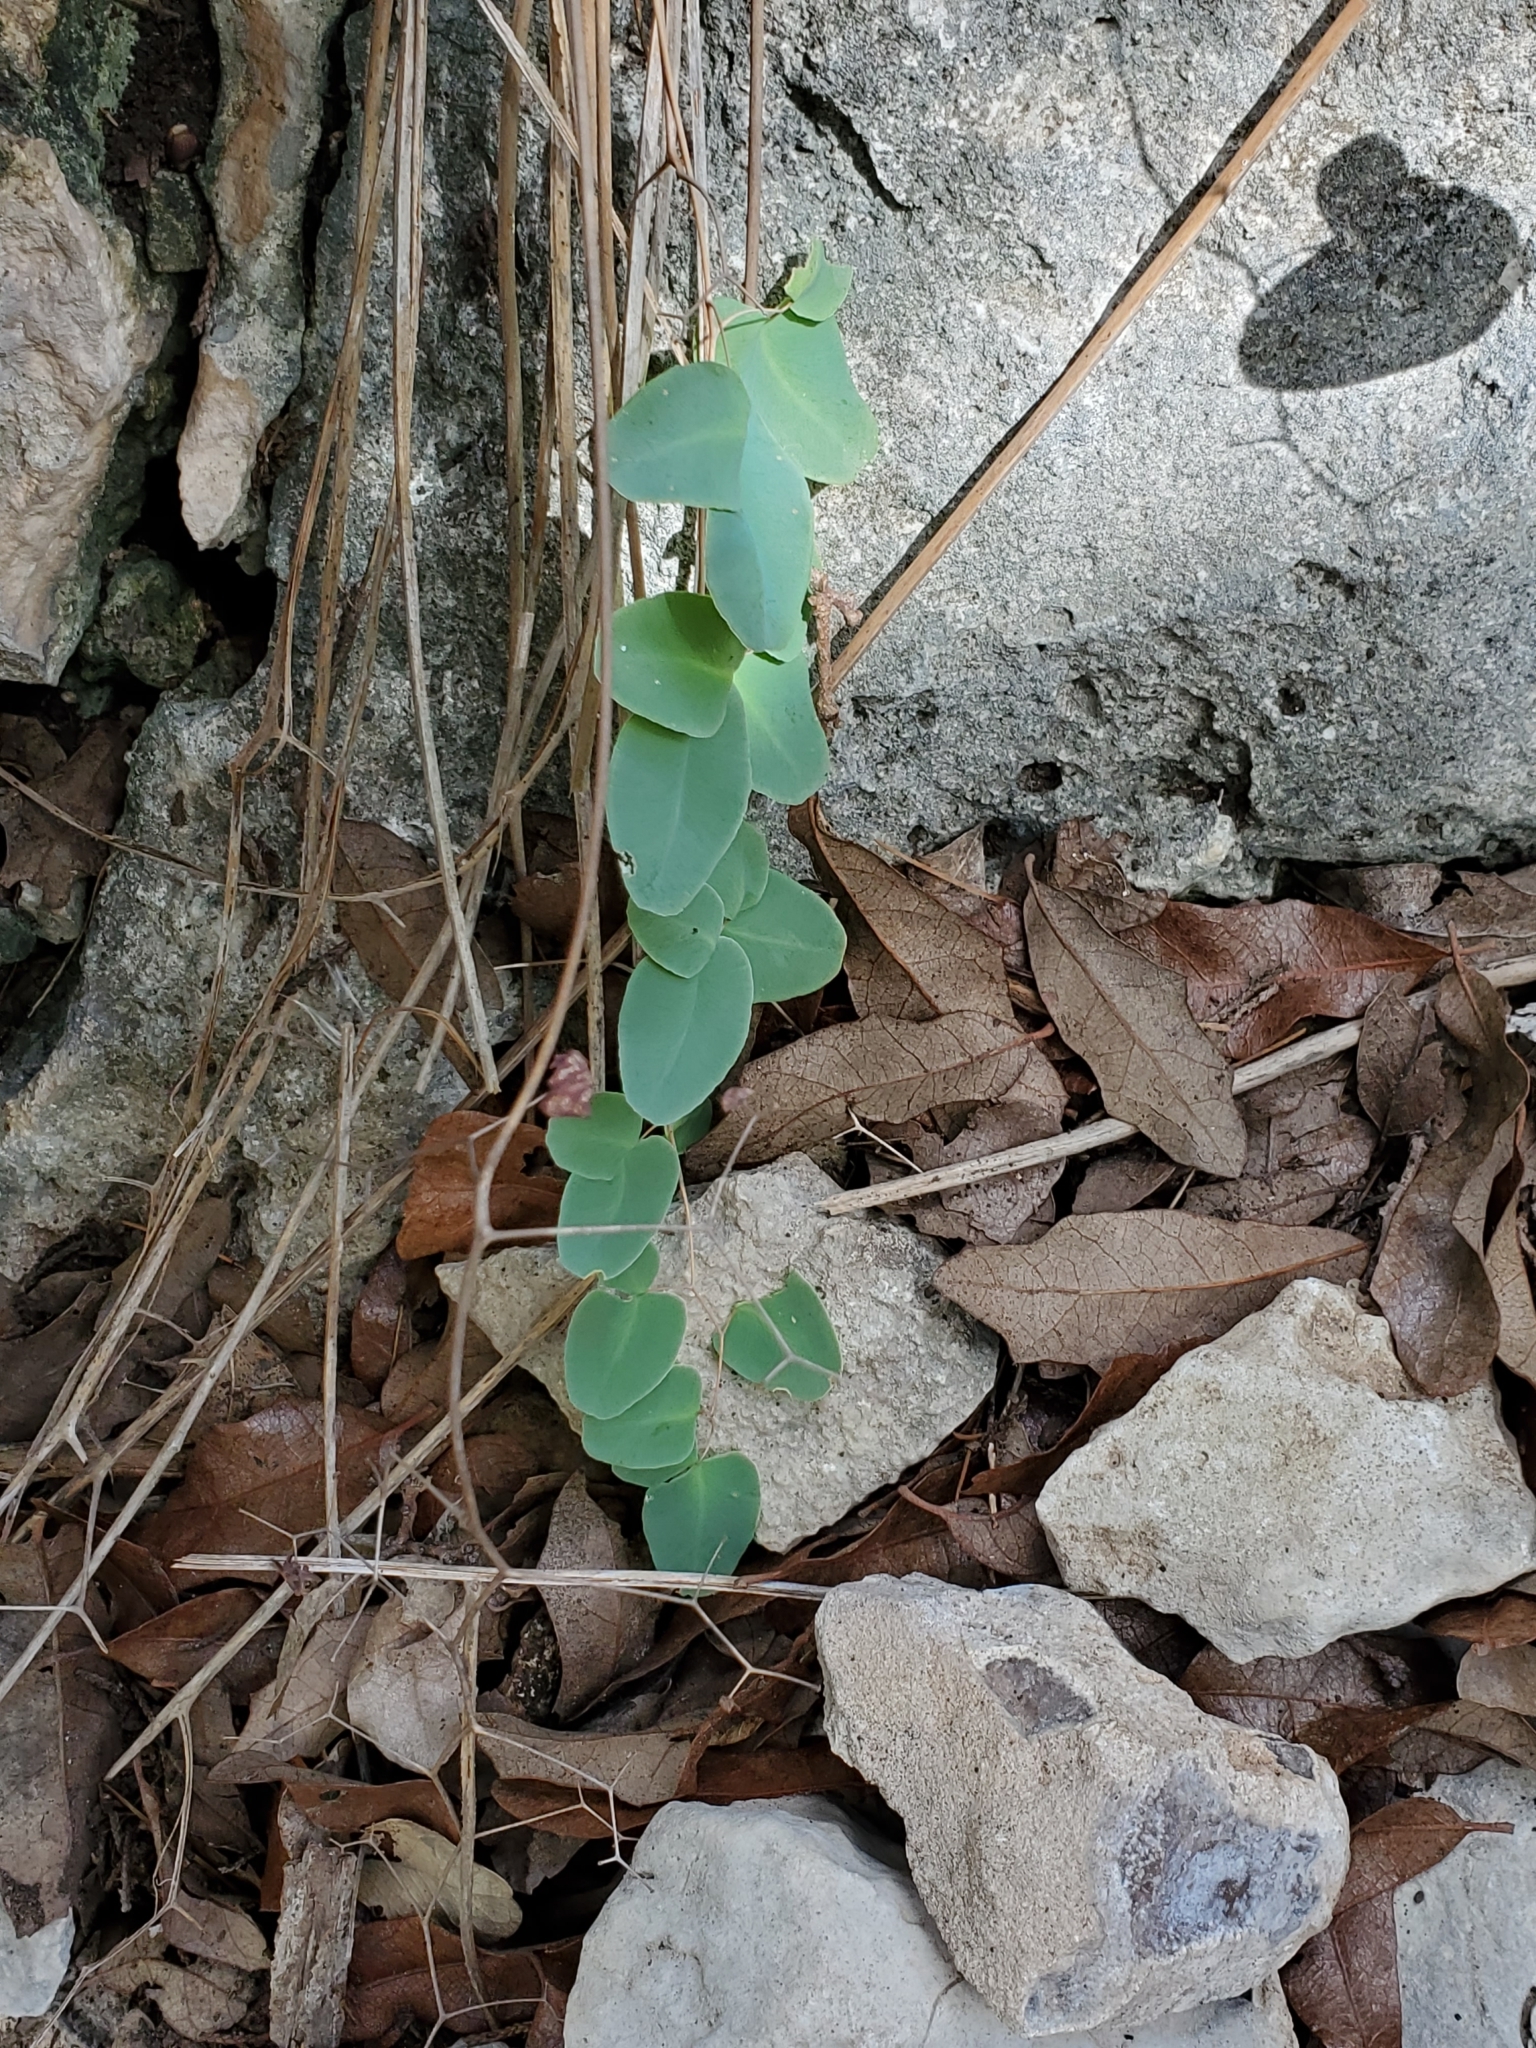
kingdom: Plantae
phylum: Tracheophyta
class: Polypodiopsida
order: Polypodiales
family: Pteridaceae
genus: Pellaea
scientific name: Pellaea ovata
